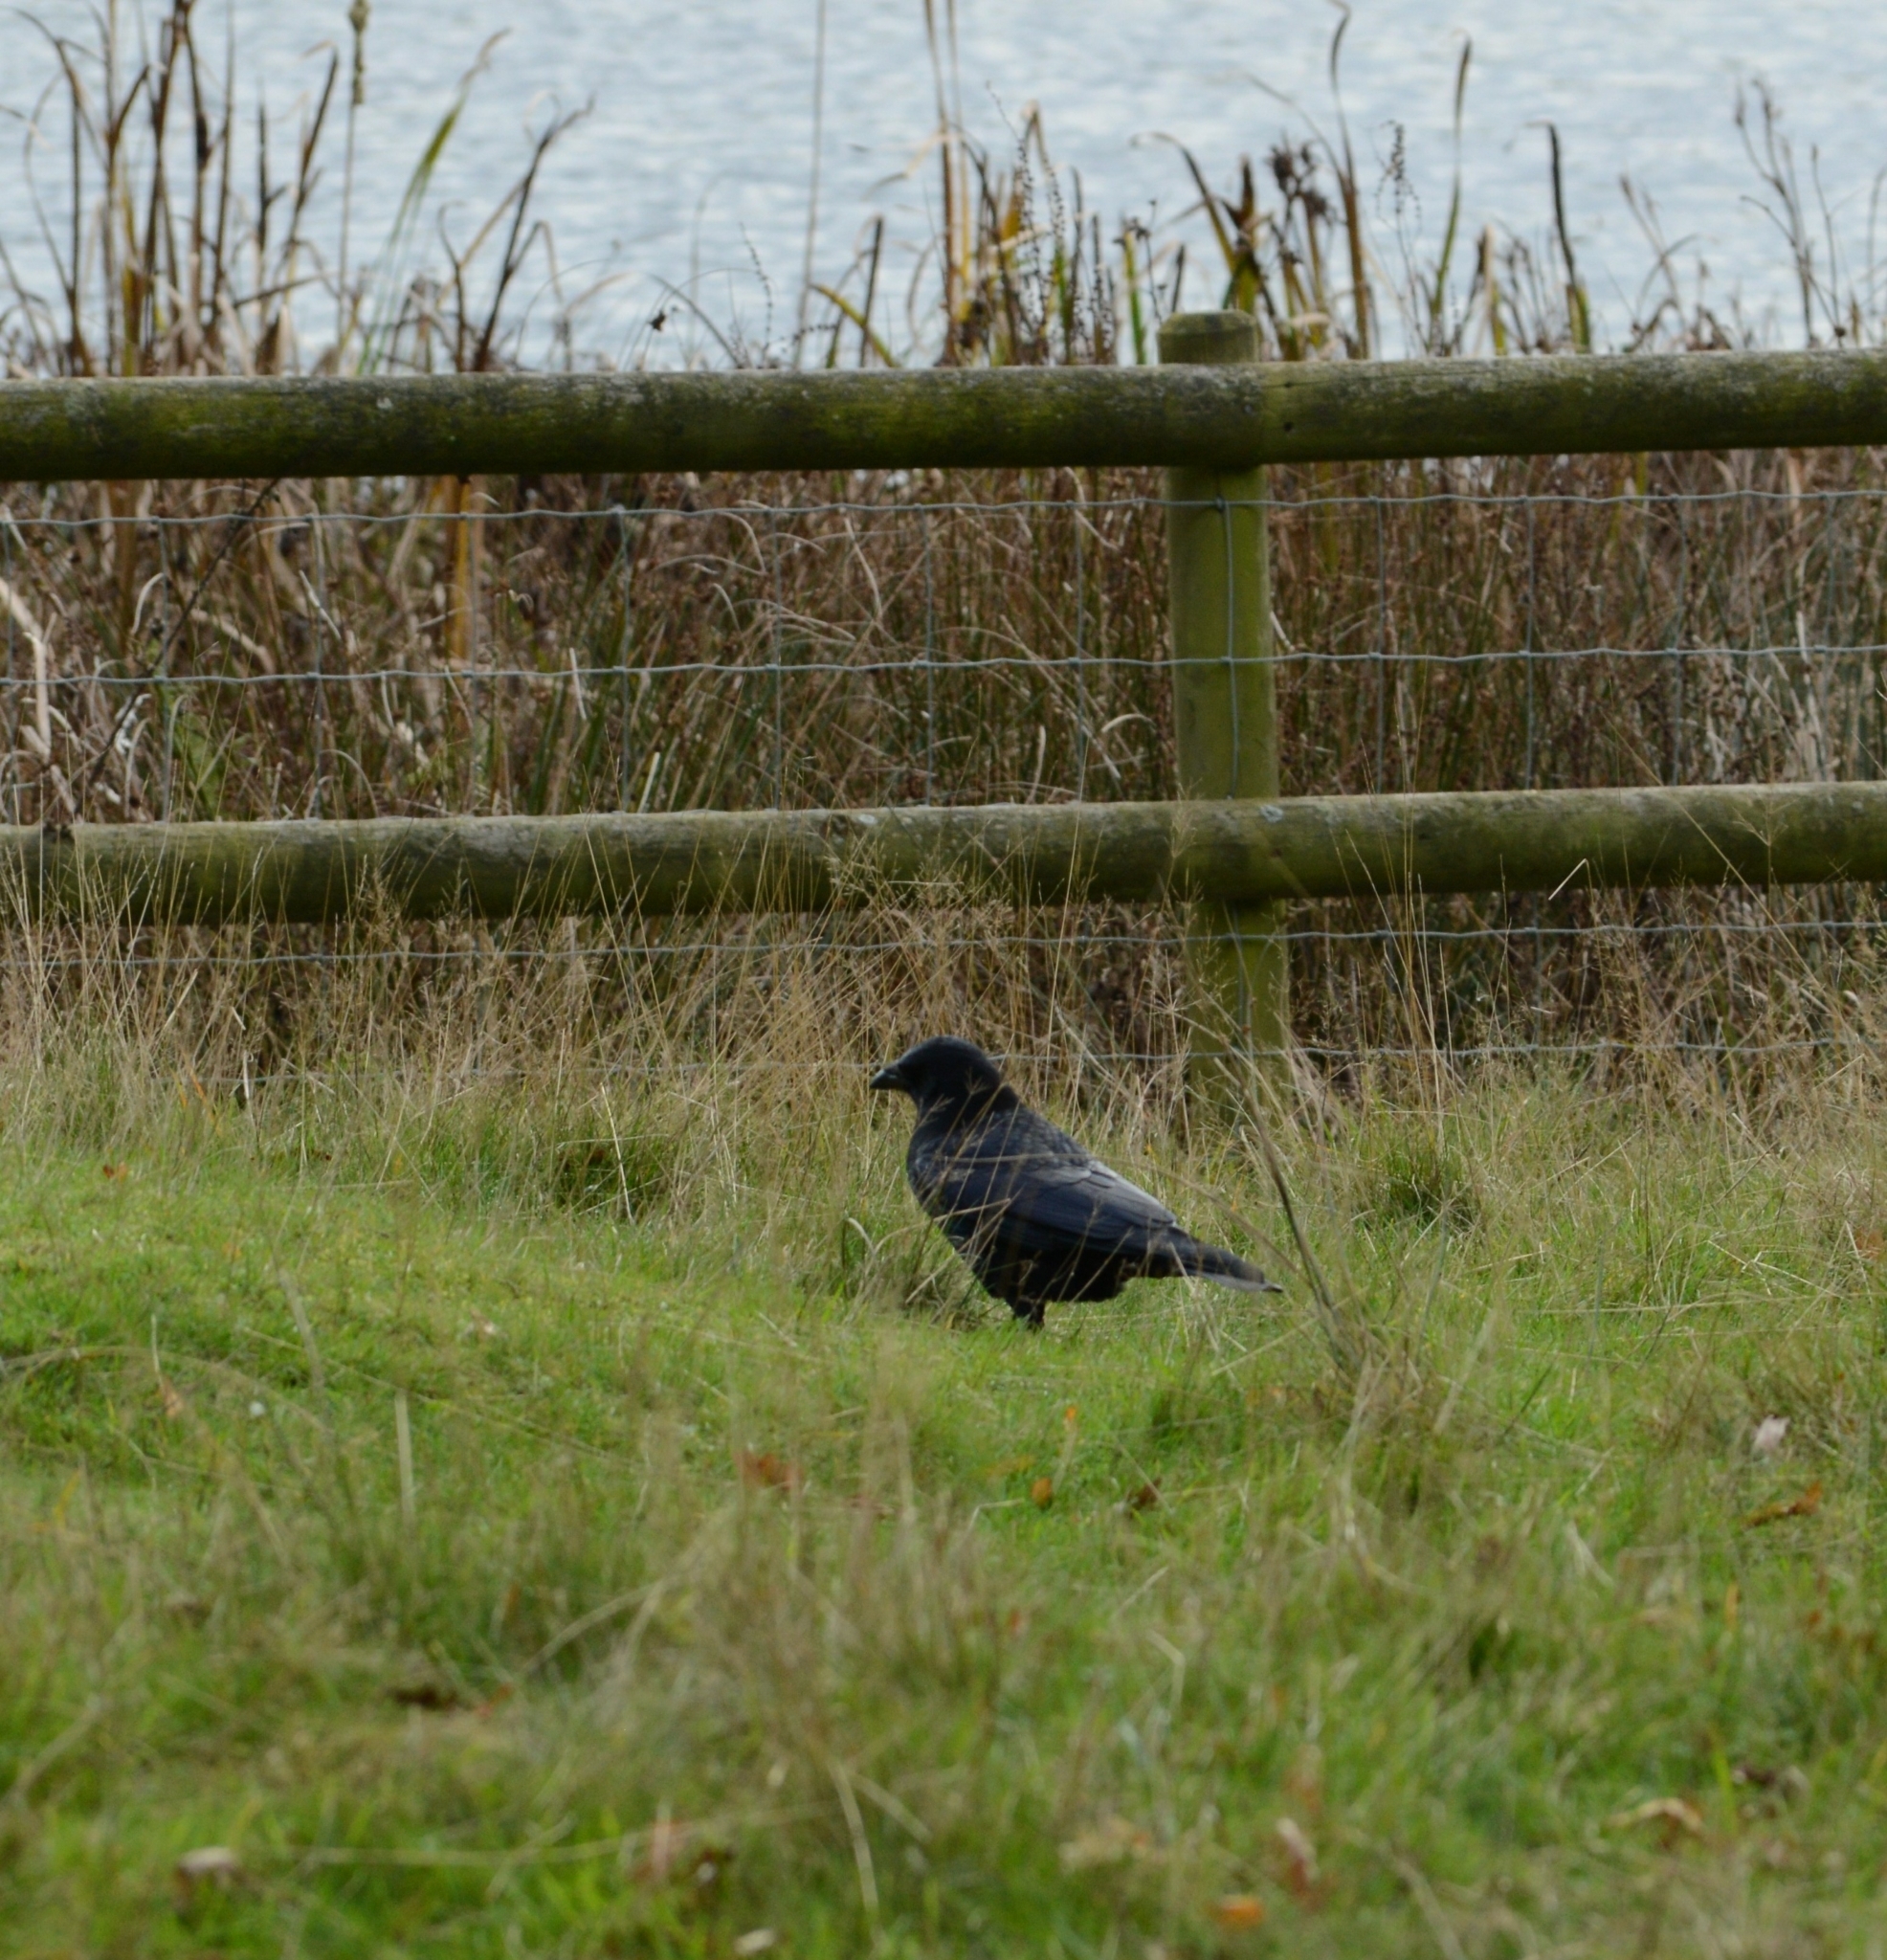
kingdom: Animalia
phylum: Chordata
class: Aves
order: Passeriformes
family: Corvidae
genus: Corvus
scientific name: Corvus corone
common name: Carrion crow
